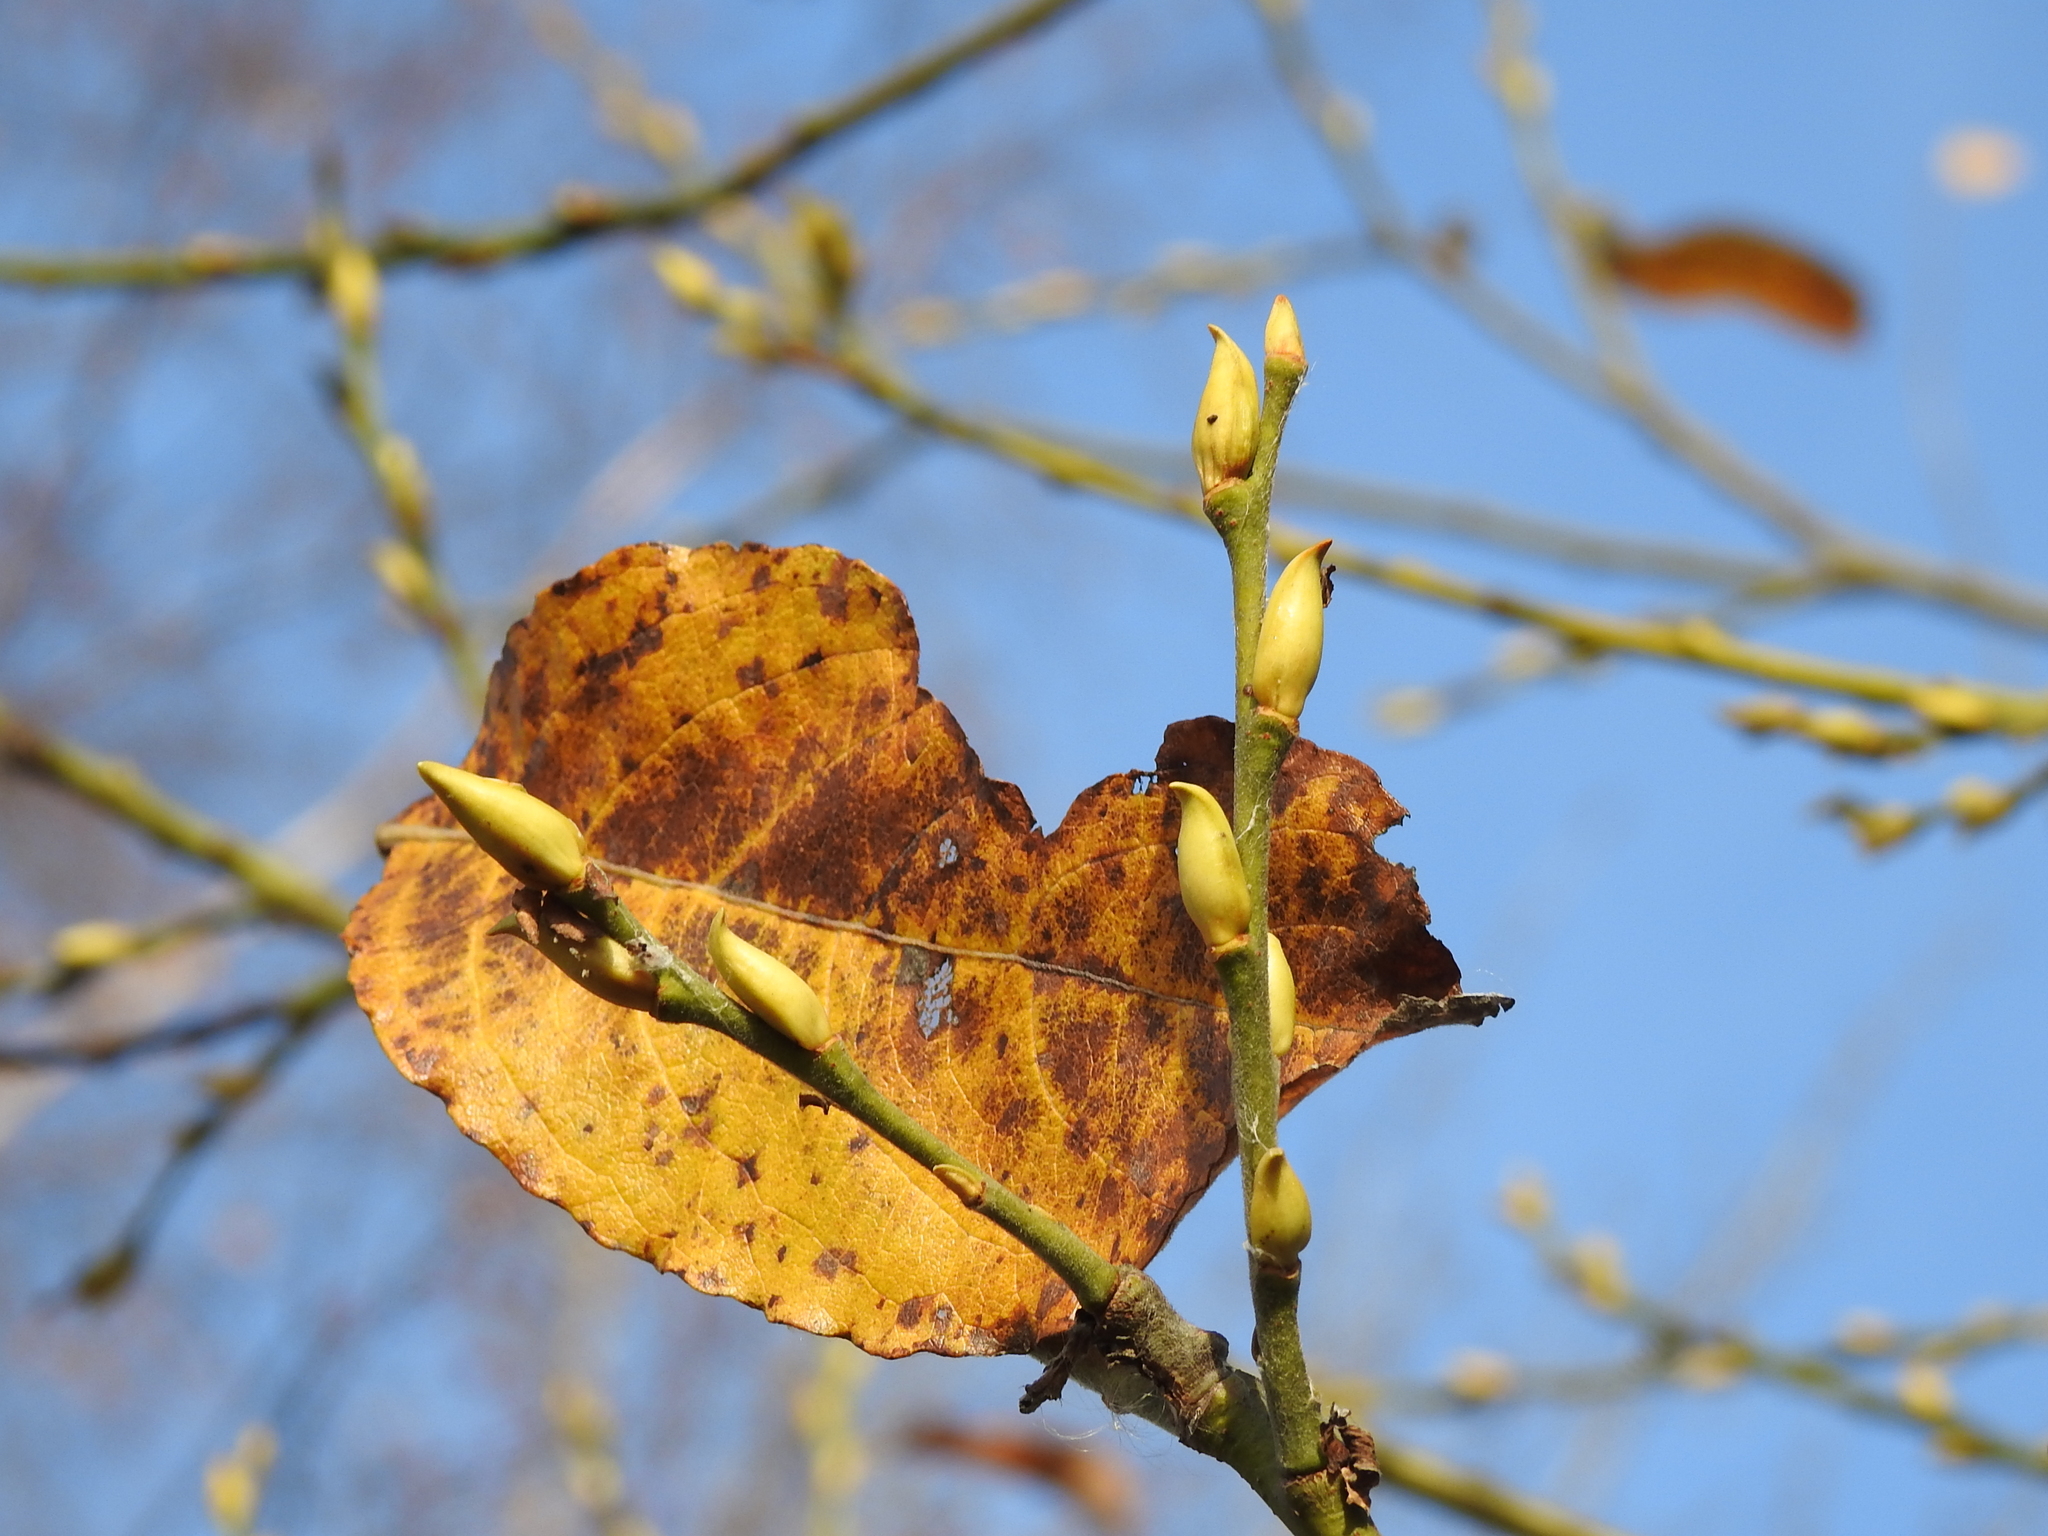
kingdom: Plantae
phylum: Tracheophyta
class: Magnoliopsida
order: Malpighiales
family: Salicaceae
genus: Salix
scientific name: Salix caprea
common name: Goat willow
